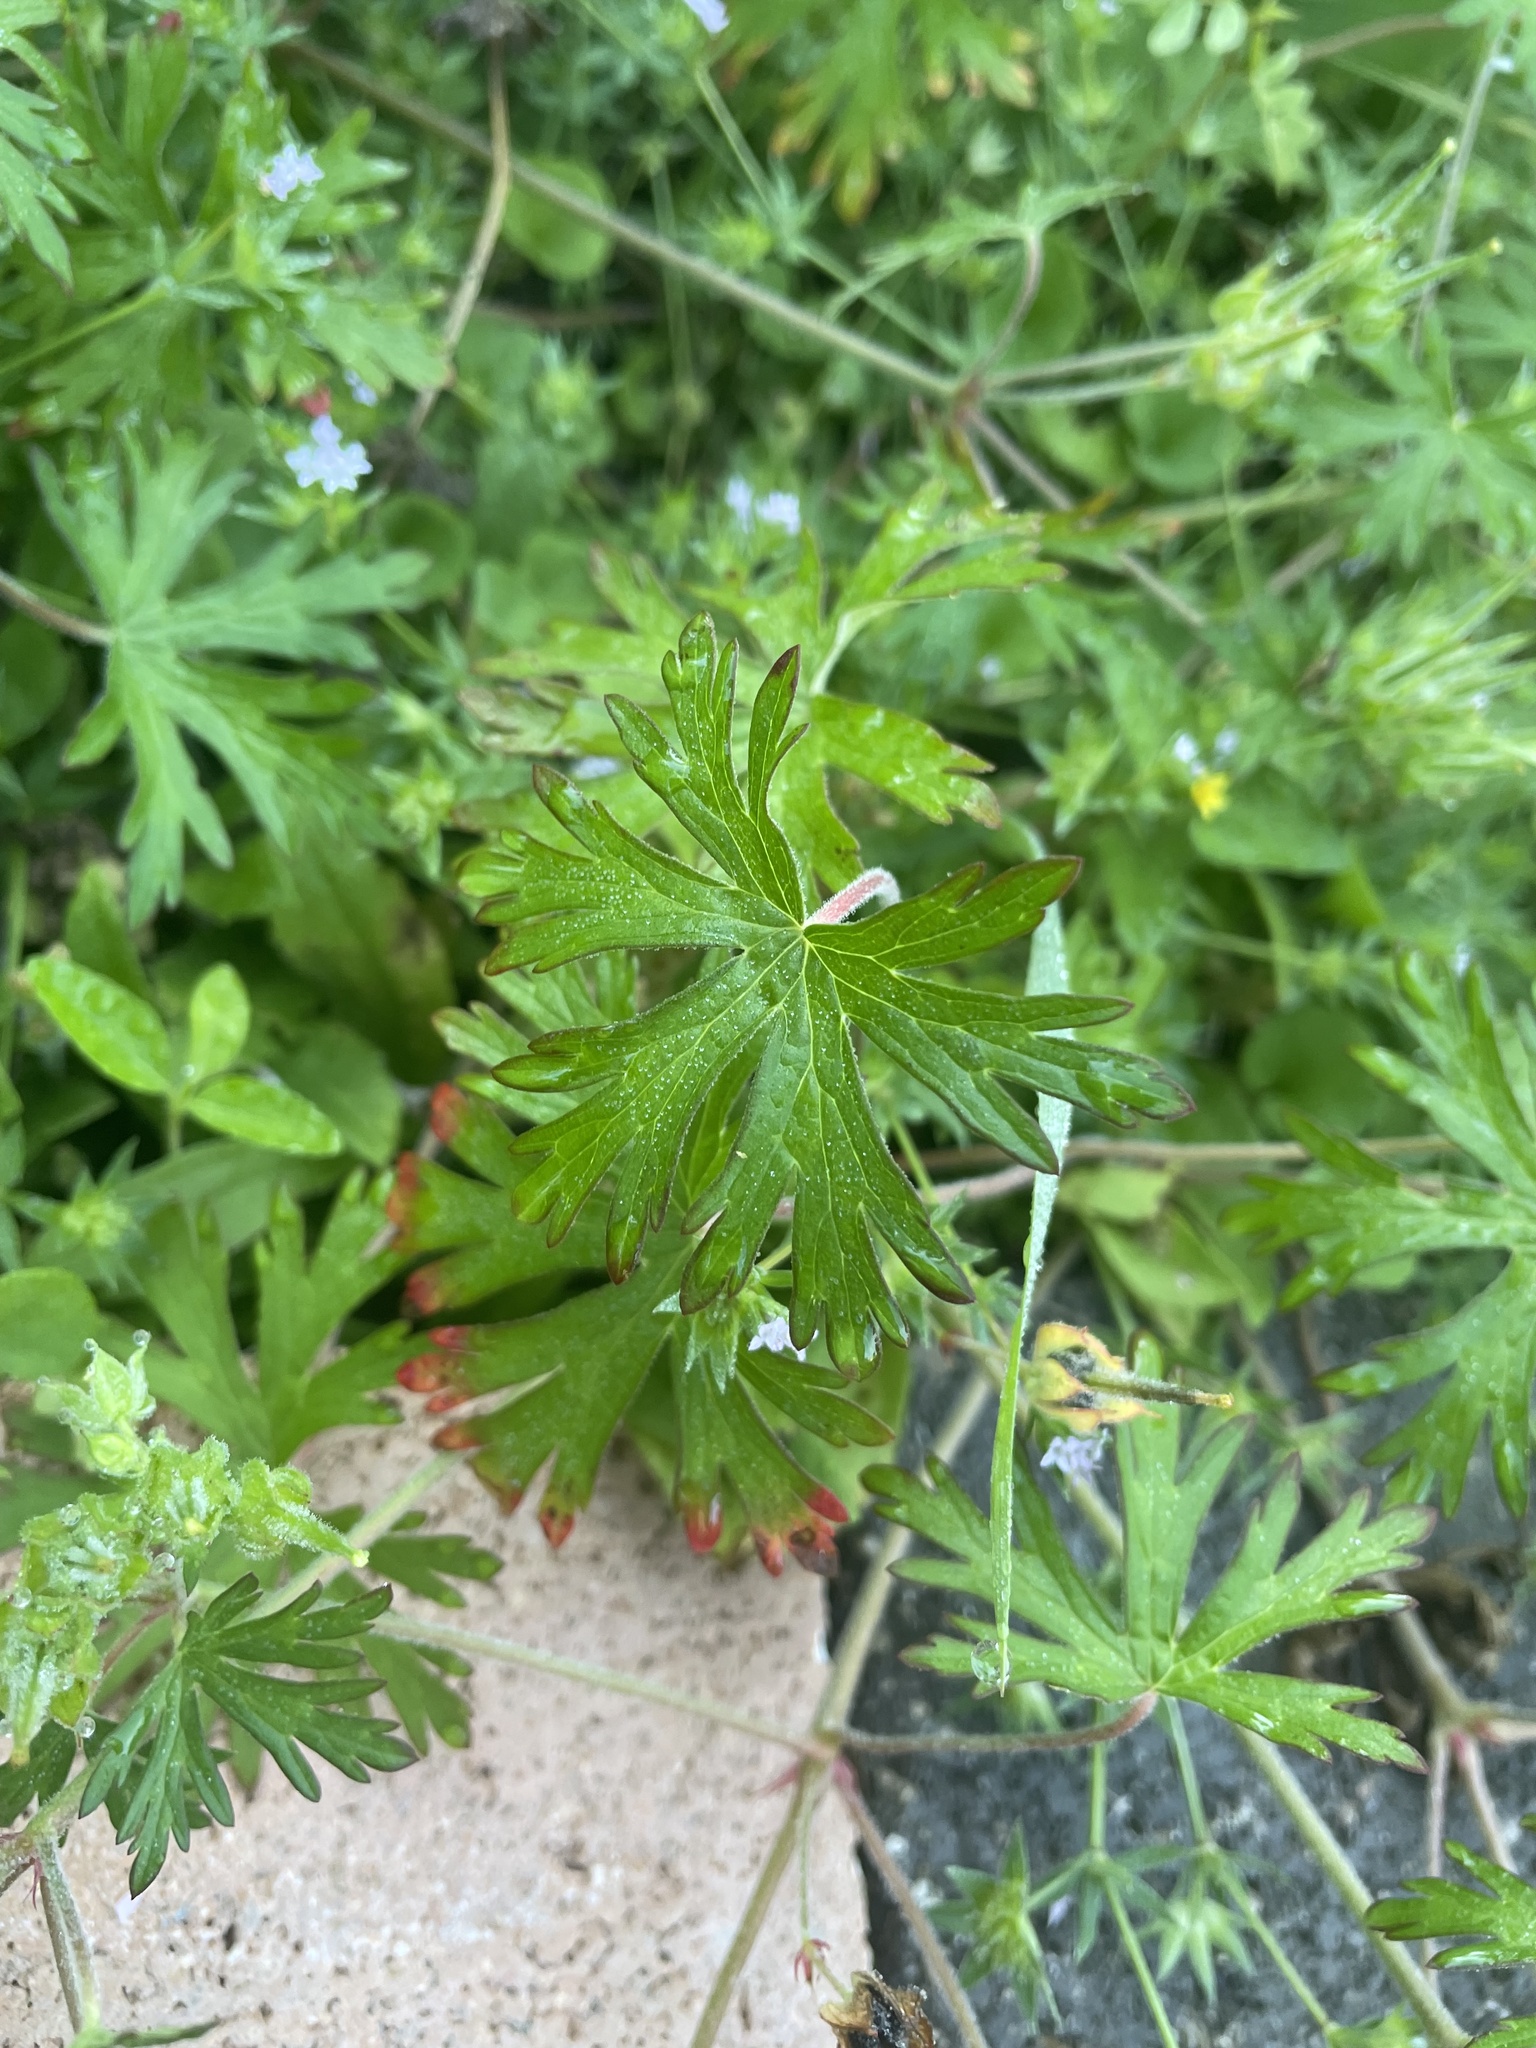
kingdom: Plantae
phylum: Tracheophyta
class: Magnoliopsida
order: Geraniales
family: Geraniaceae
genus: Geranium
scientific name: Geranium carolinianum
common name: Carolina crane's-bill
